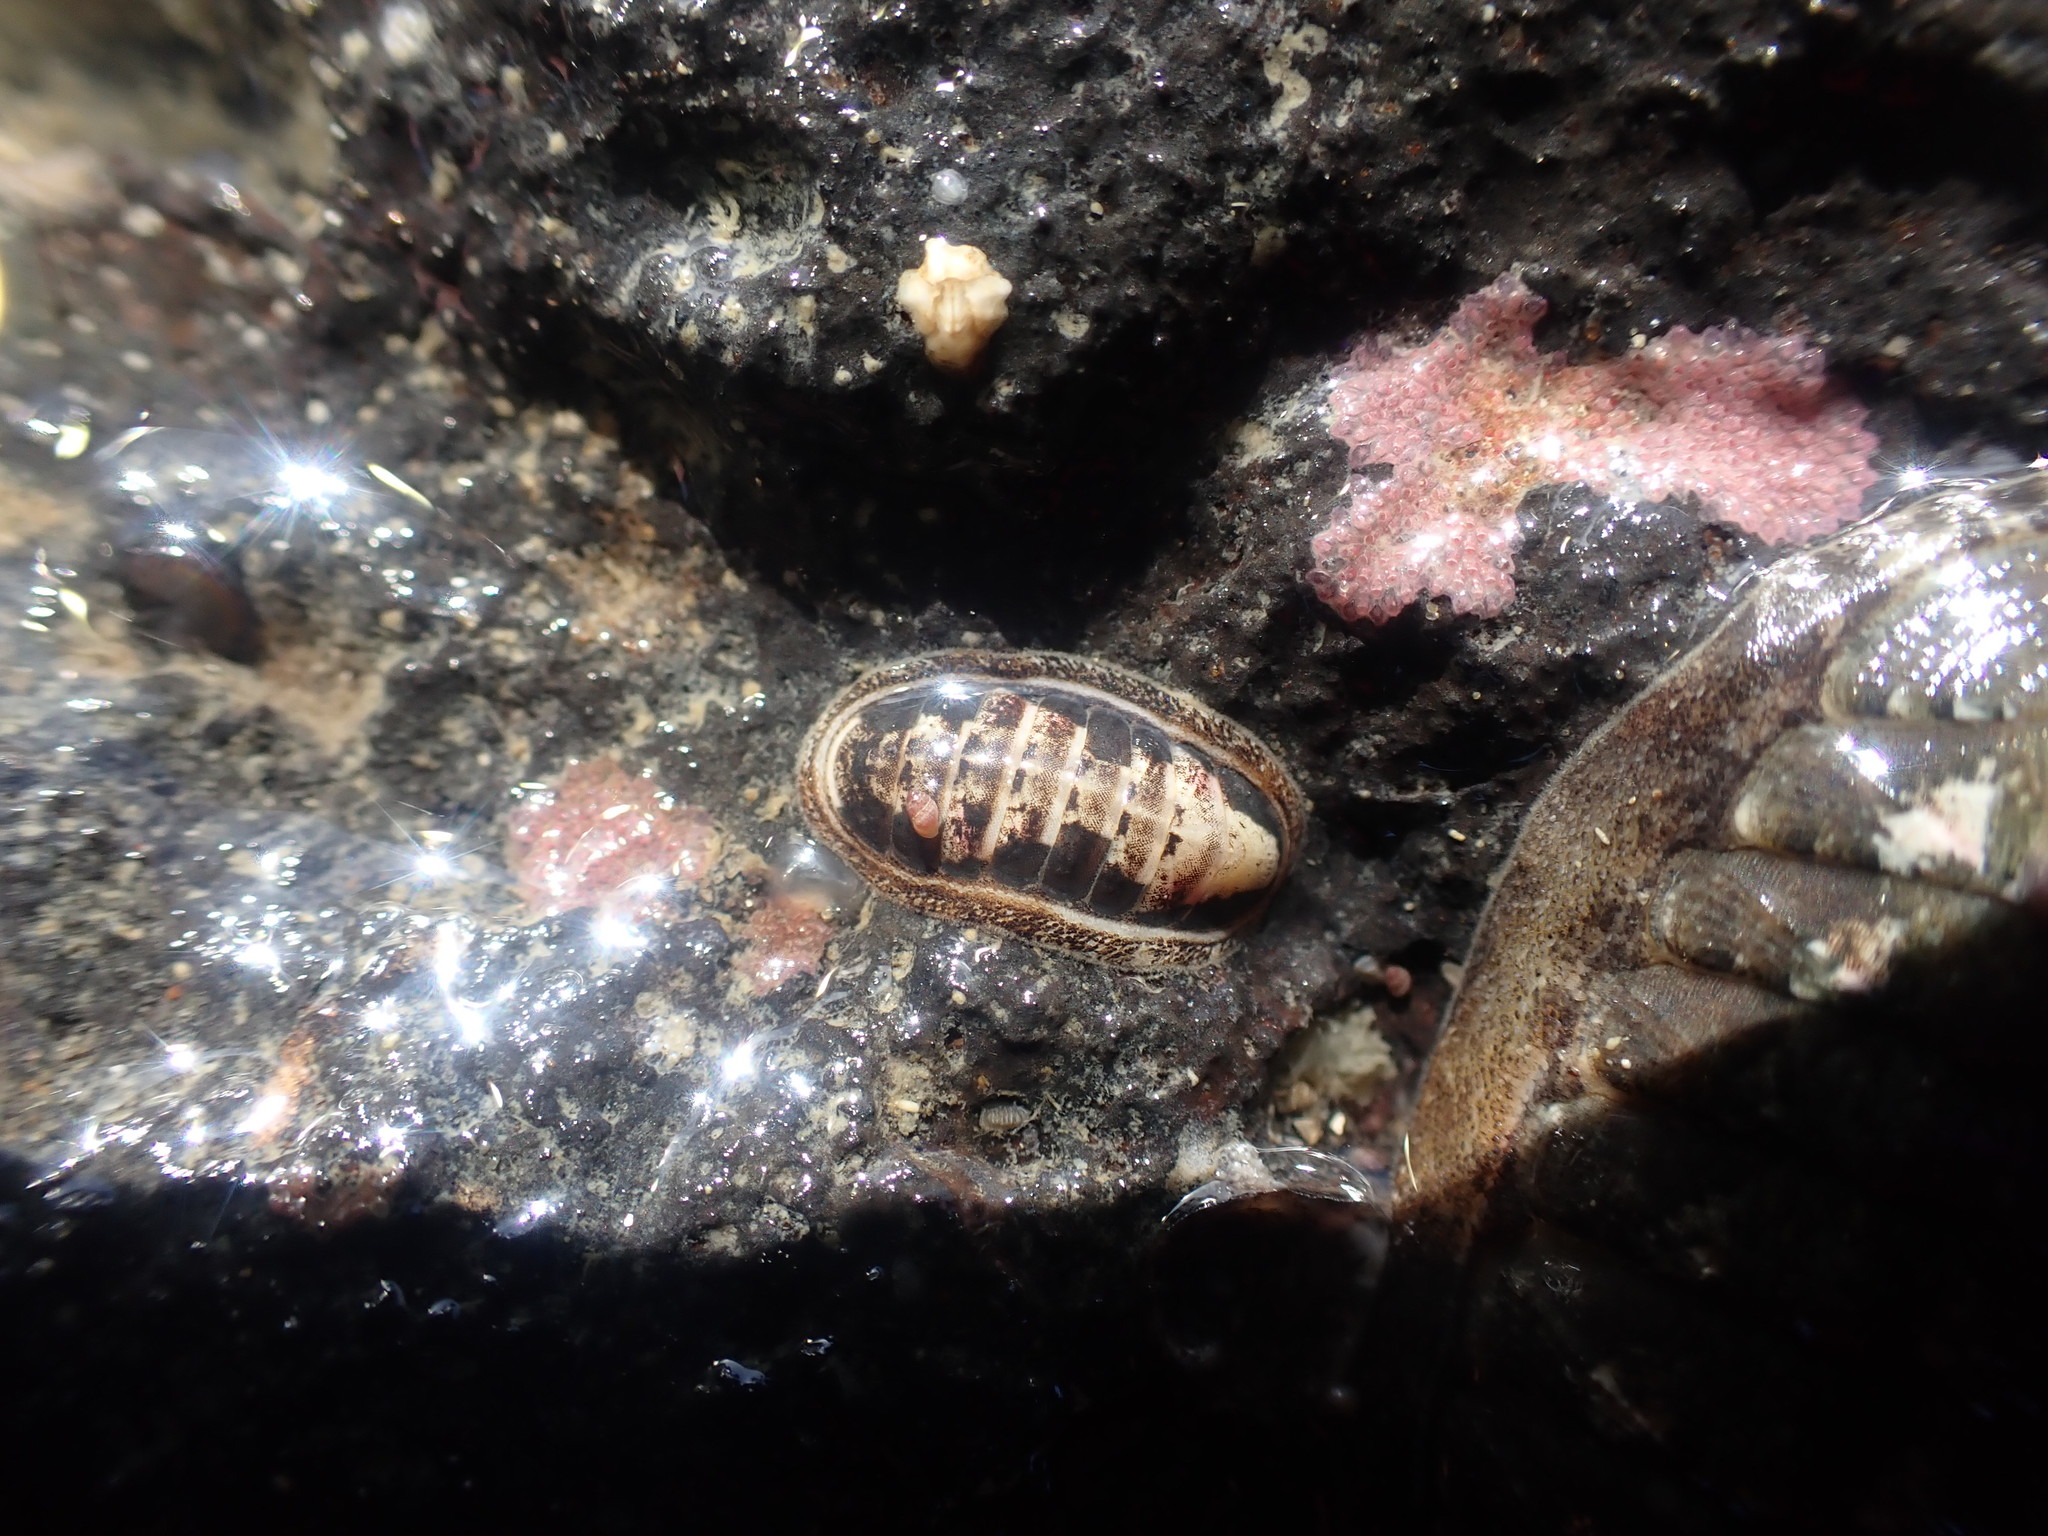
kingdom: Animalia
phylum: Mollusca
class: Polyplacophora
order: Lepidopleurida
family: Leptochitonidae
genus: Leptochiton
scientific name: Leptochiton inquinatus
